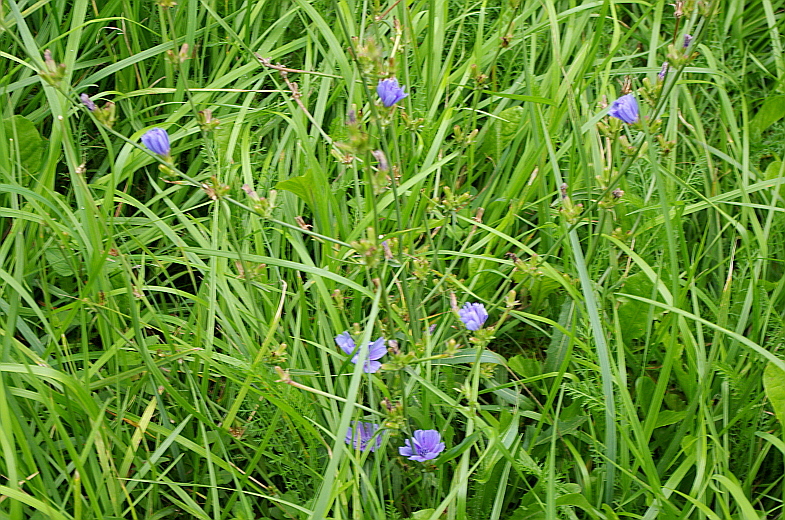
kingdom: Plantae
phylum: Tracheophyta
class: Magnoliopsida
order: Asterales
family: Asteraceae
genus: Cichorium
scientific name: Cichorium intybus
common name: Chicory
